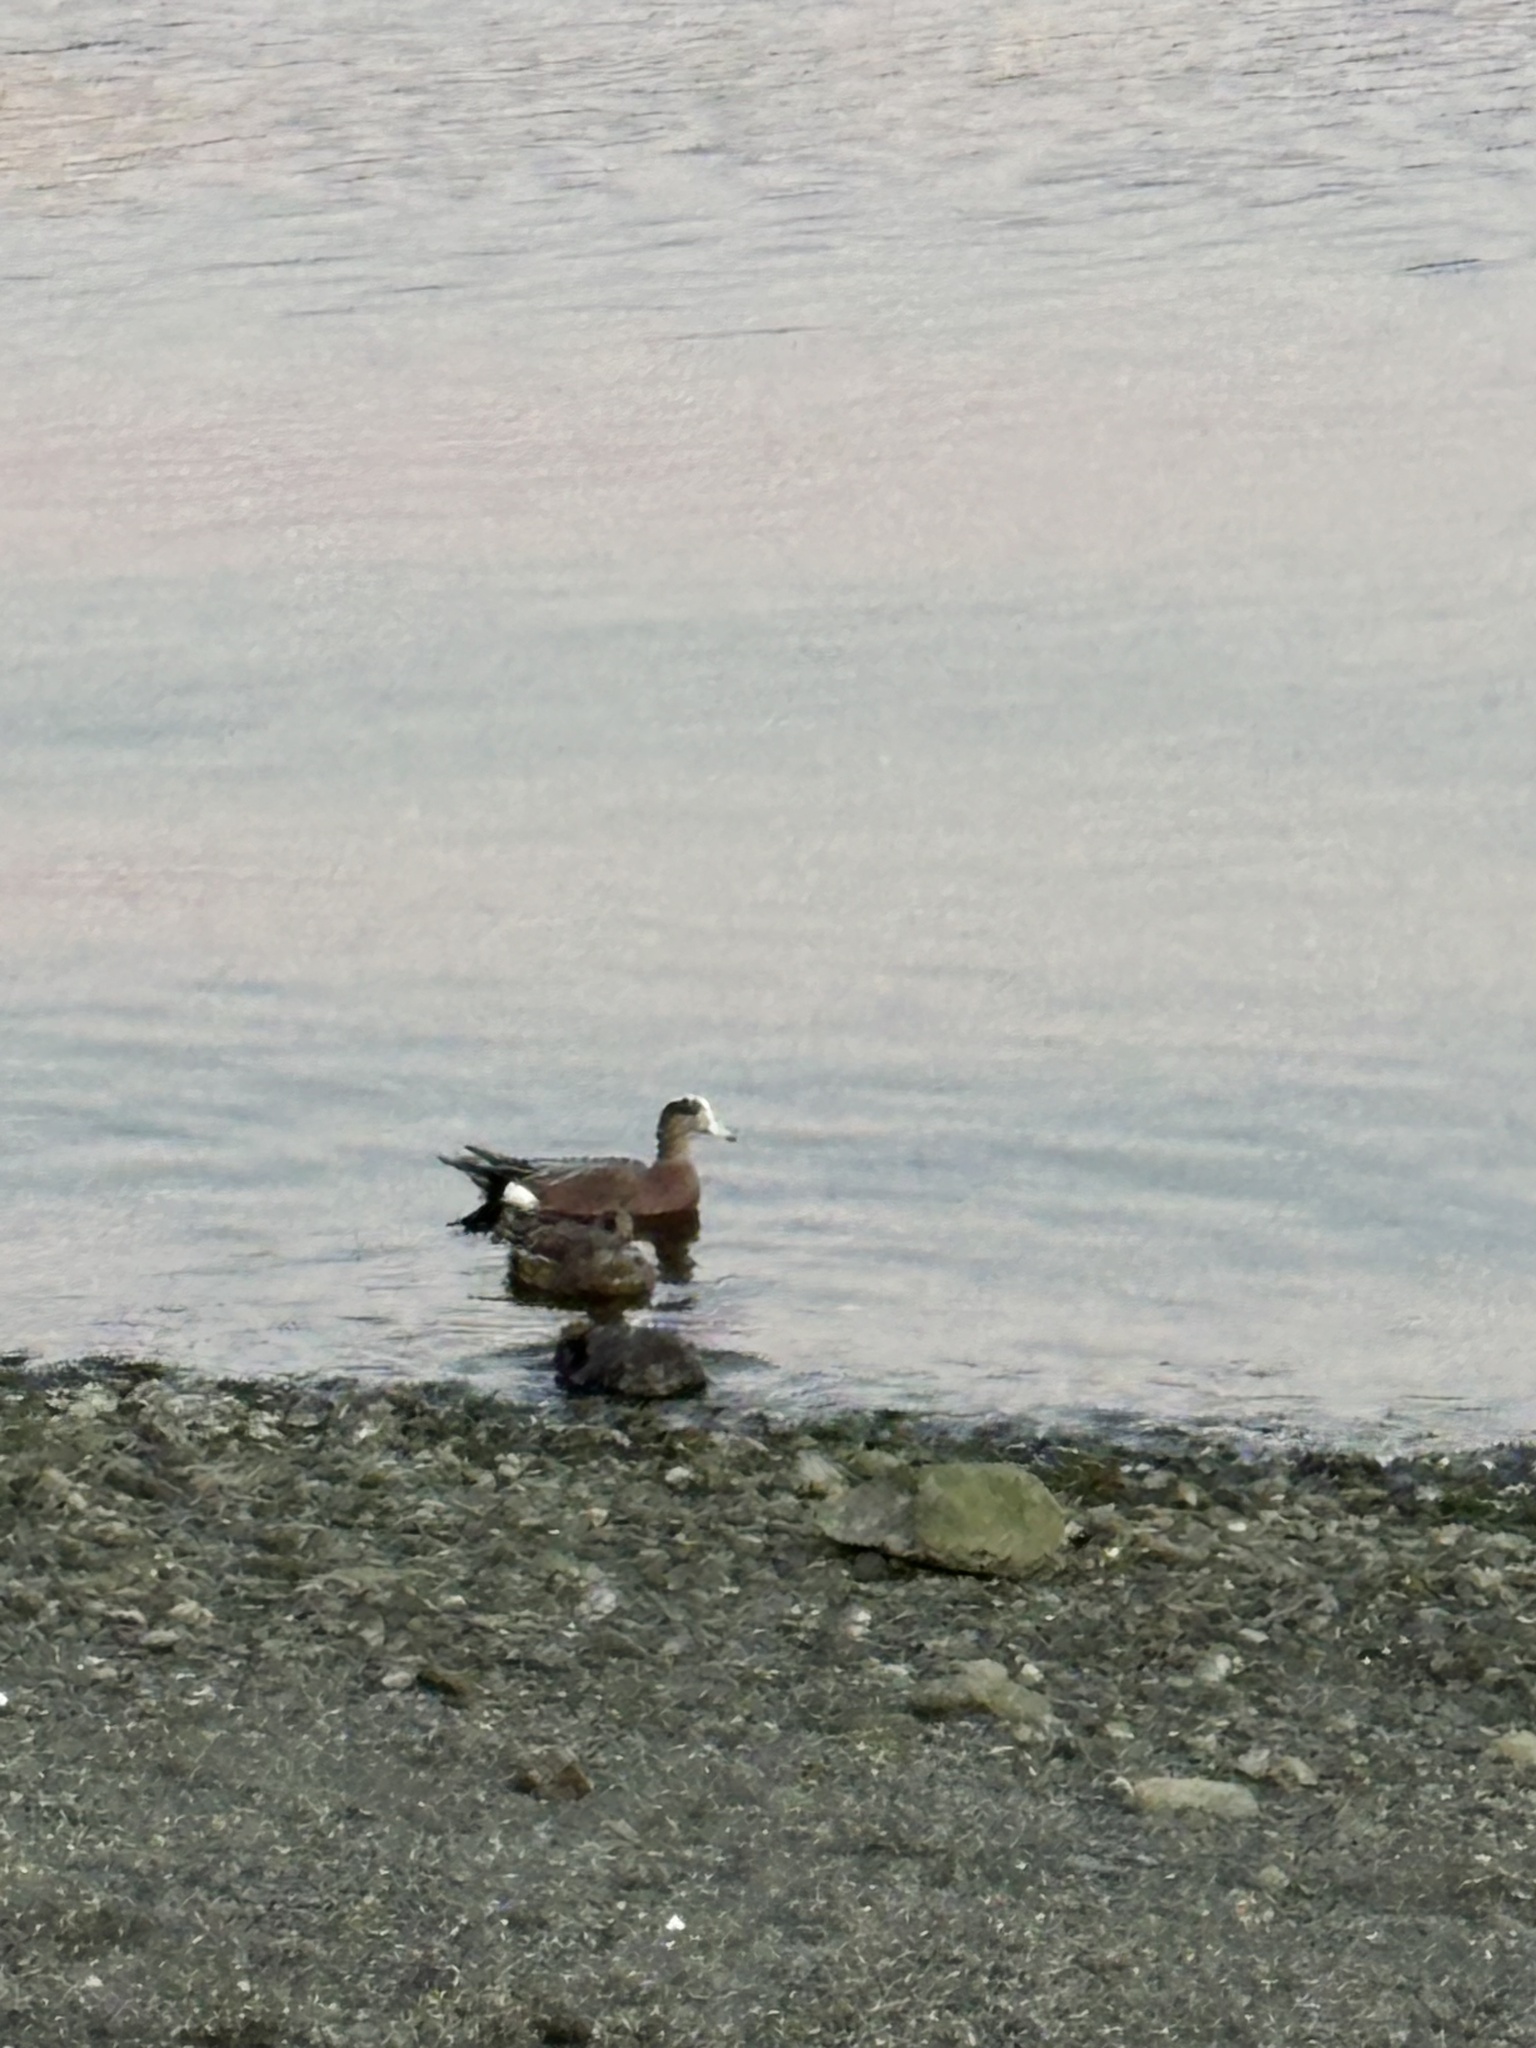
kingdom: Animalia
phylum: Chordata
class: Aves
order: Anseriformes
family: Anatidae
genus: Mareca
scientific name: Mareca americana
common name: American wigeon
